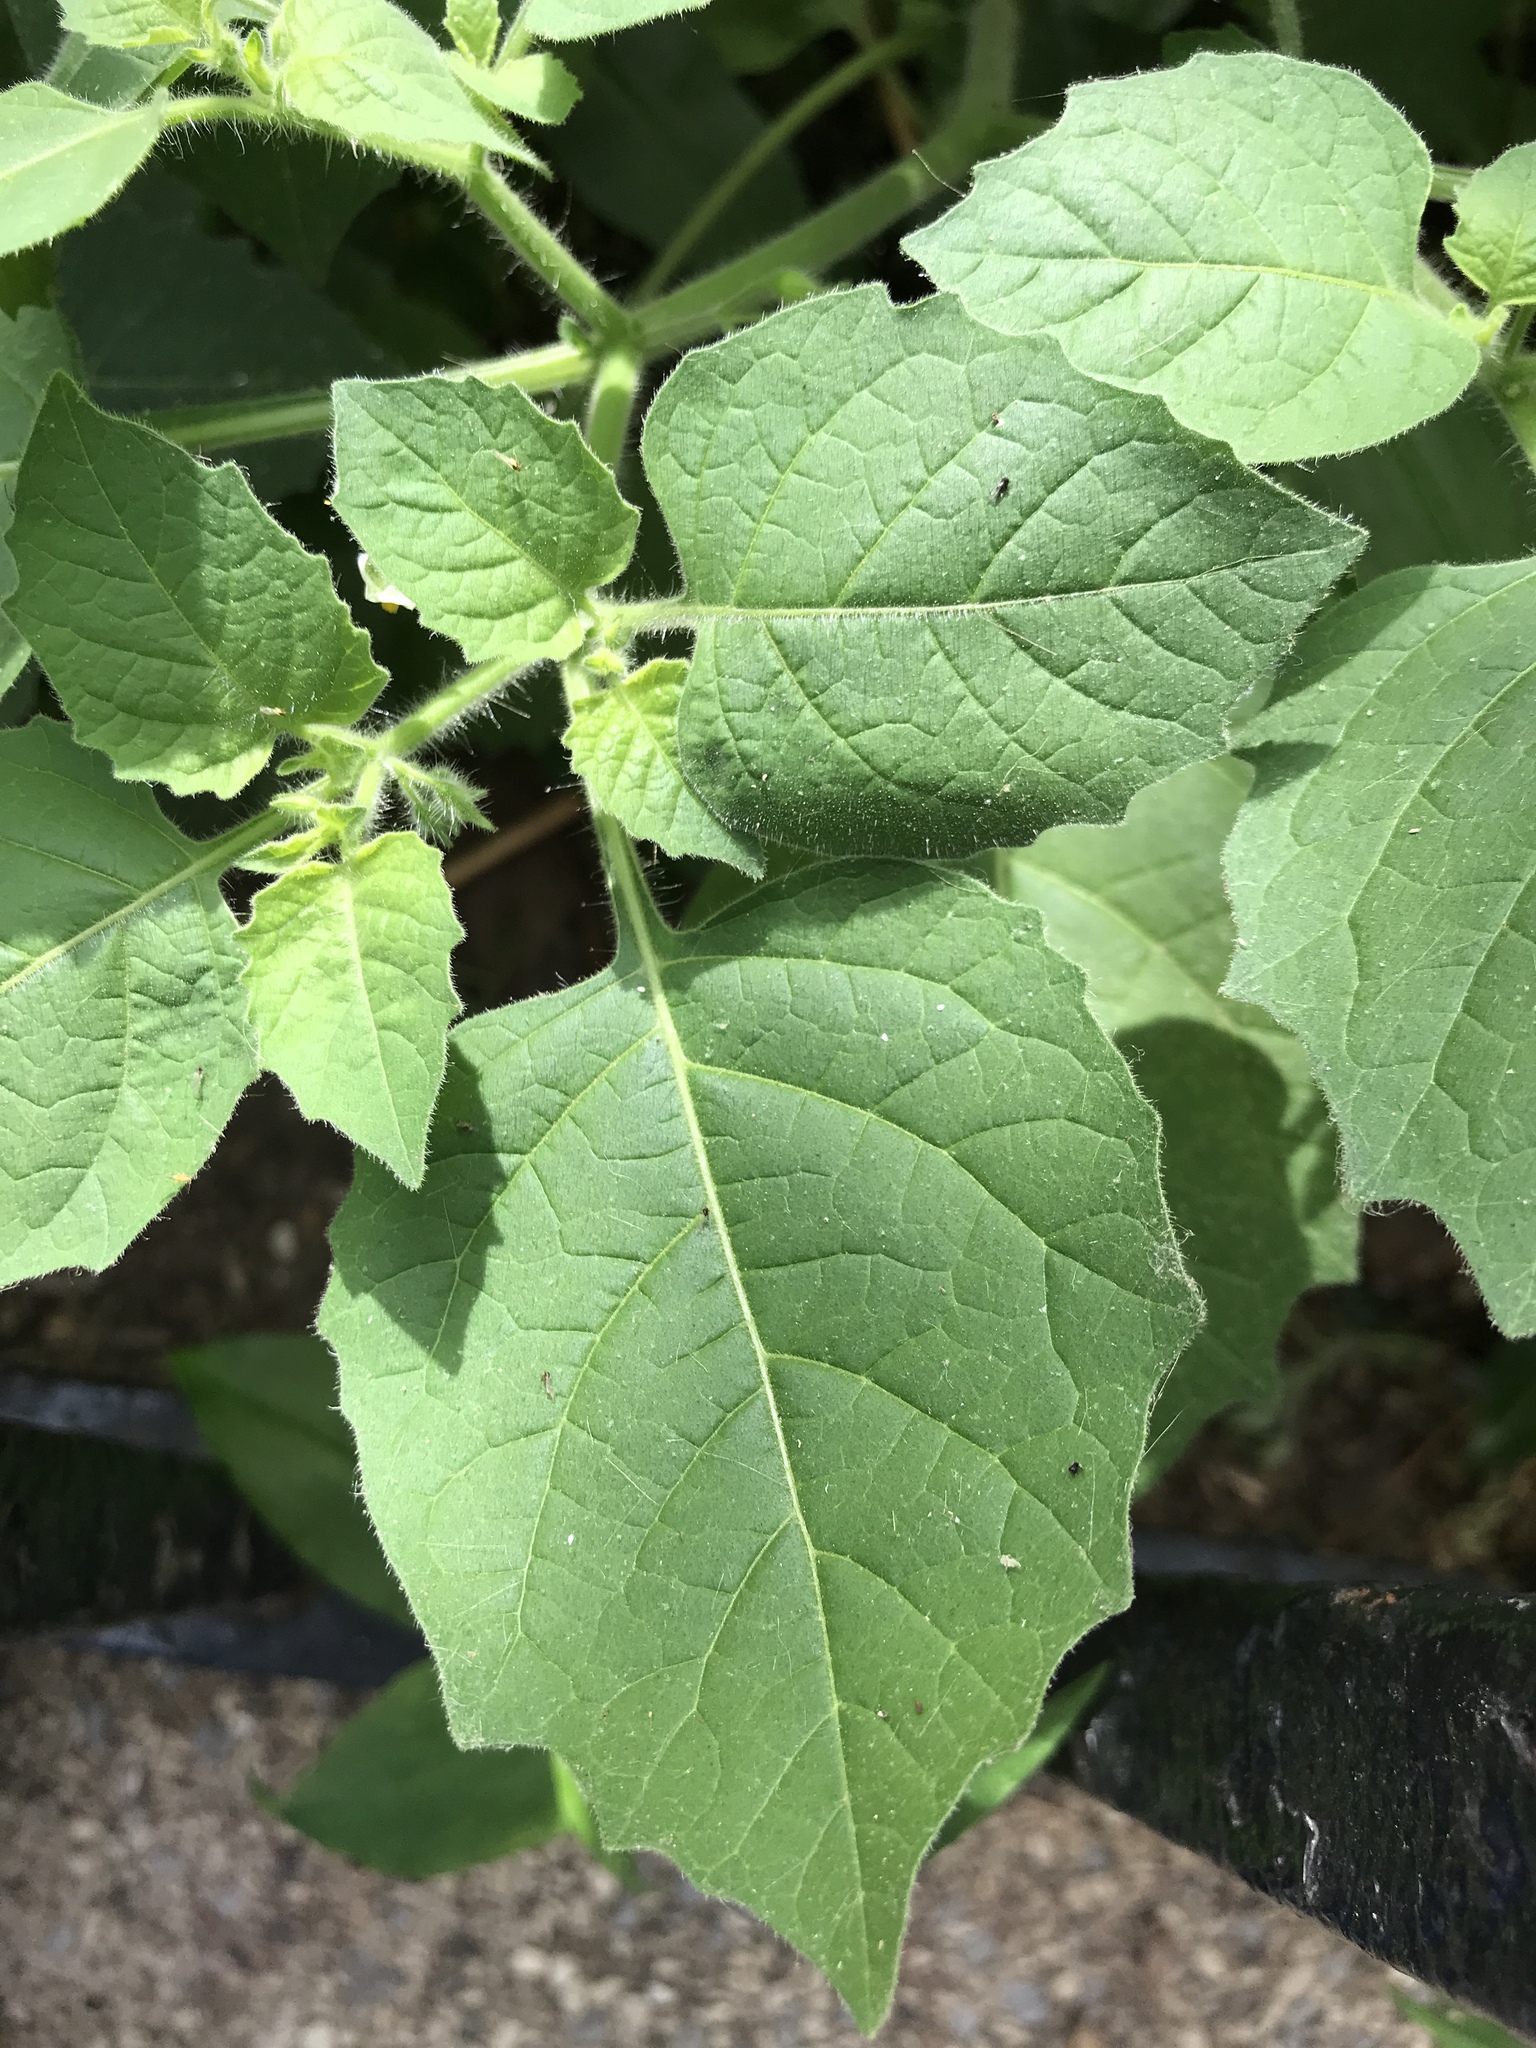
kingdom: Plantae
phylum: Tracheophyta
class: Magnoliopsida
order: Solanales
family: Solanaceae
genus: Solanum
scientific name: Solanum sarrachoides
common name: Leafy-fruited nightshade
